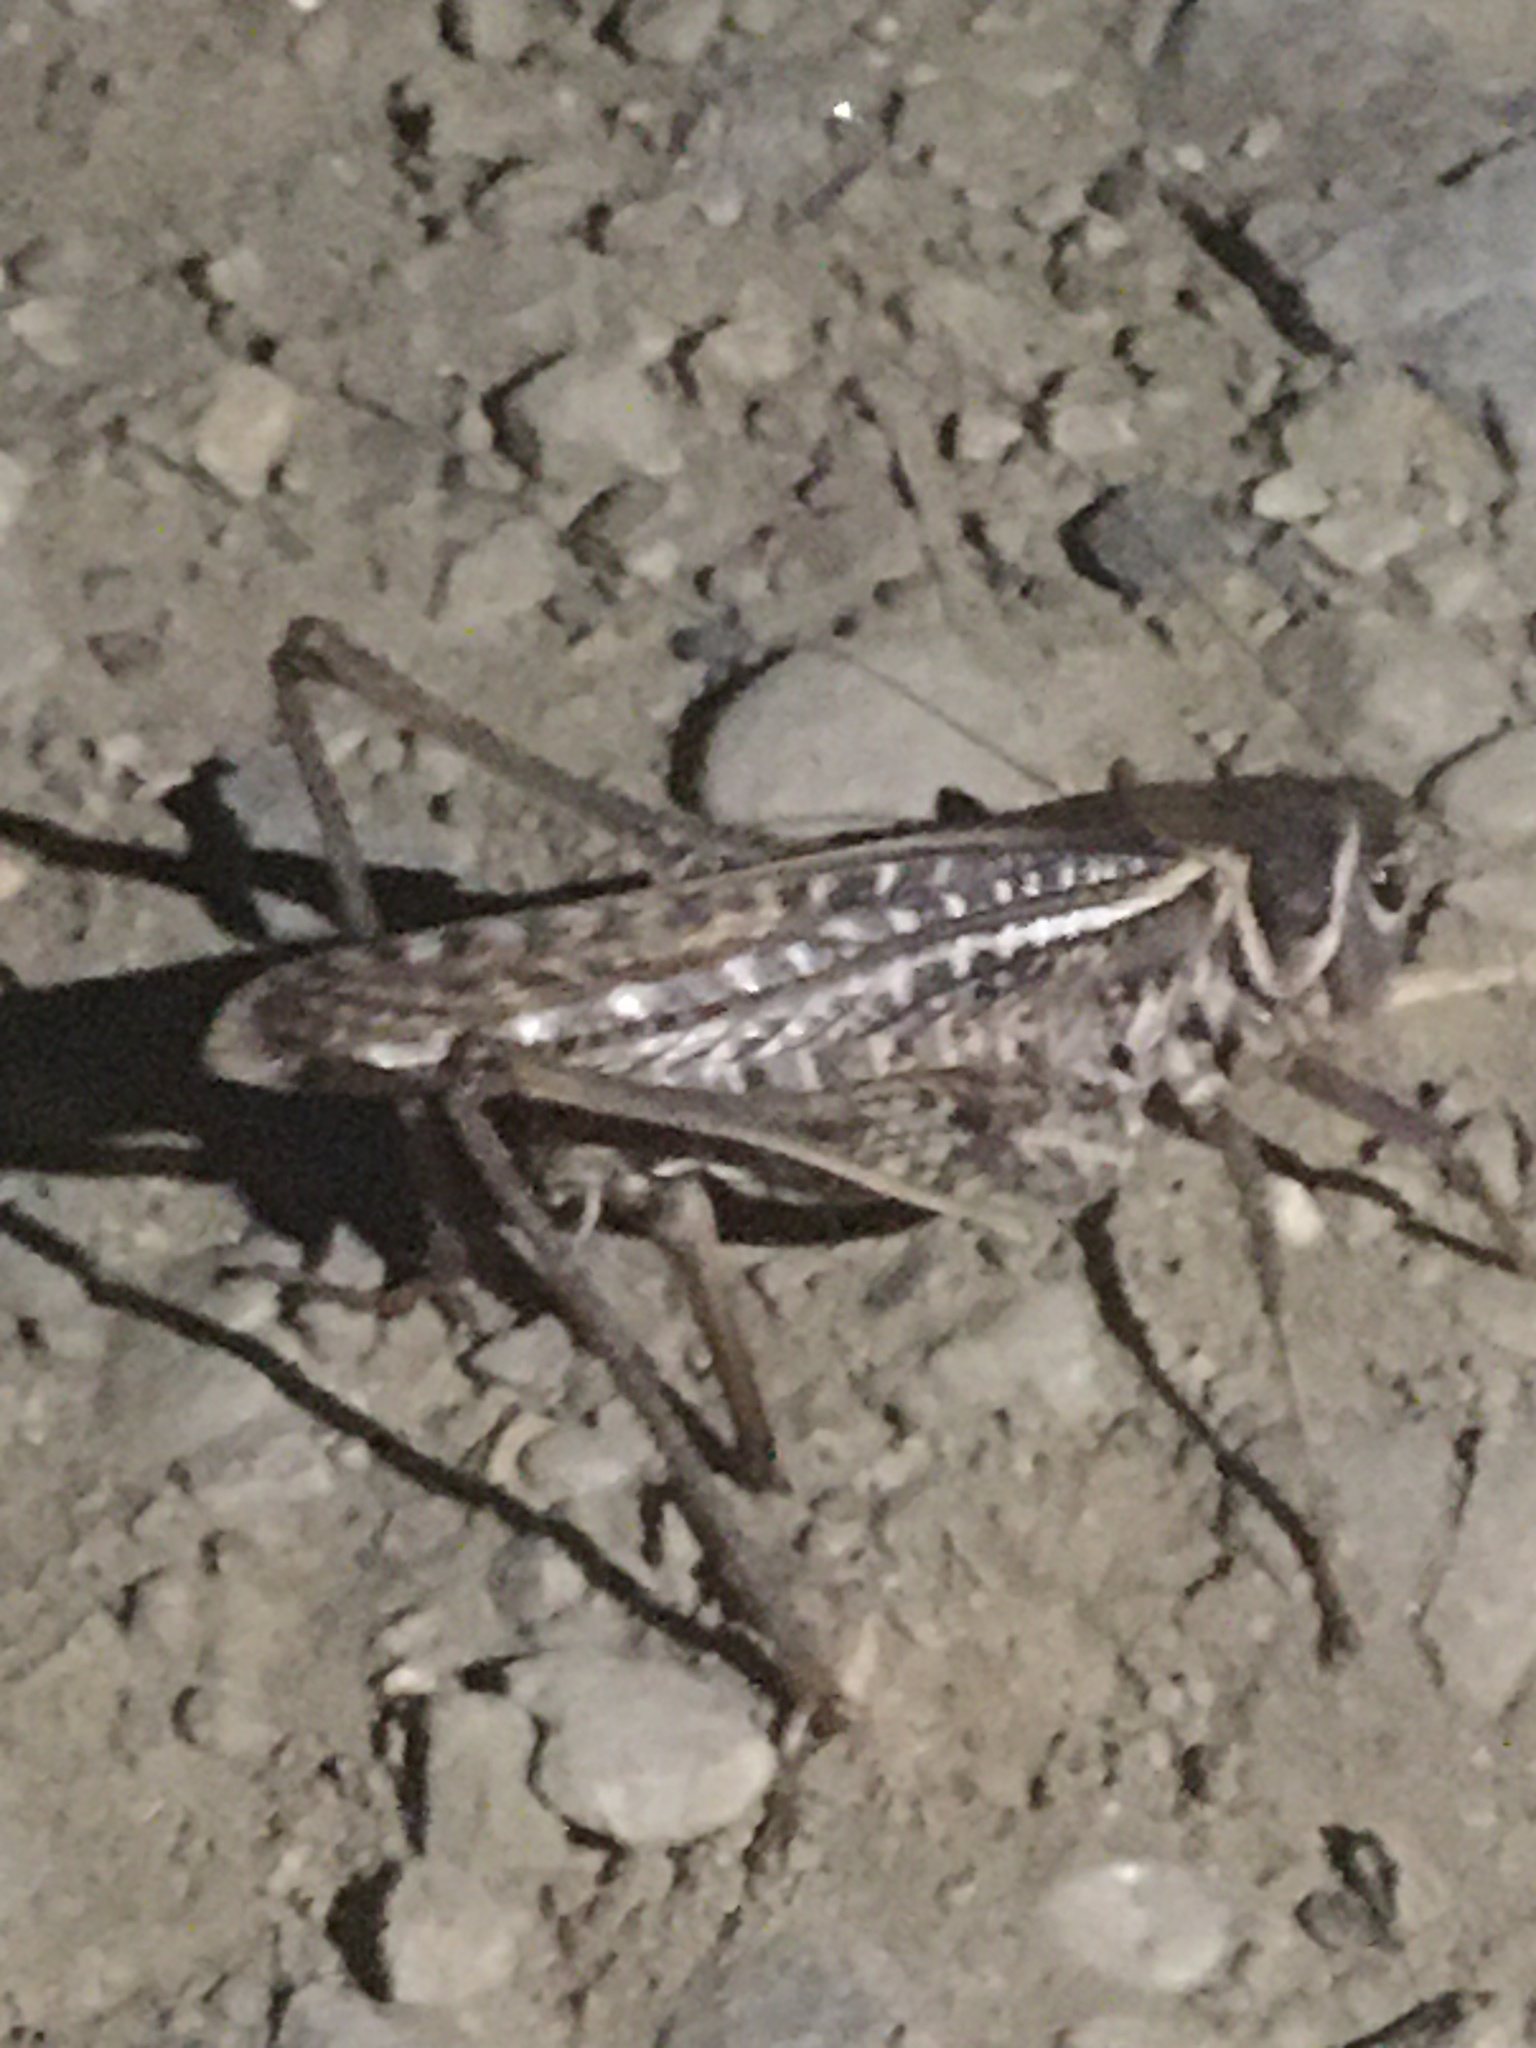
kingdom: Animalia
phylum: Arthropoda
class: Insecta
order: Orthoptera
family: Tettigoniidae
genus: Decticus
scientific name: Decticus albifrons
